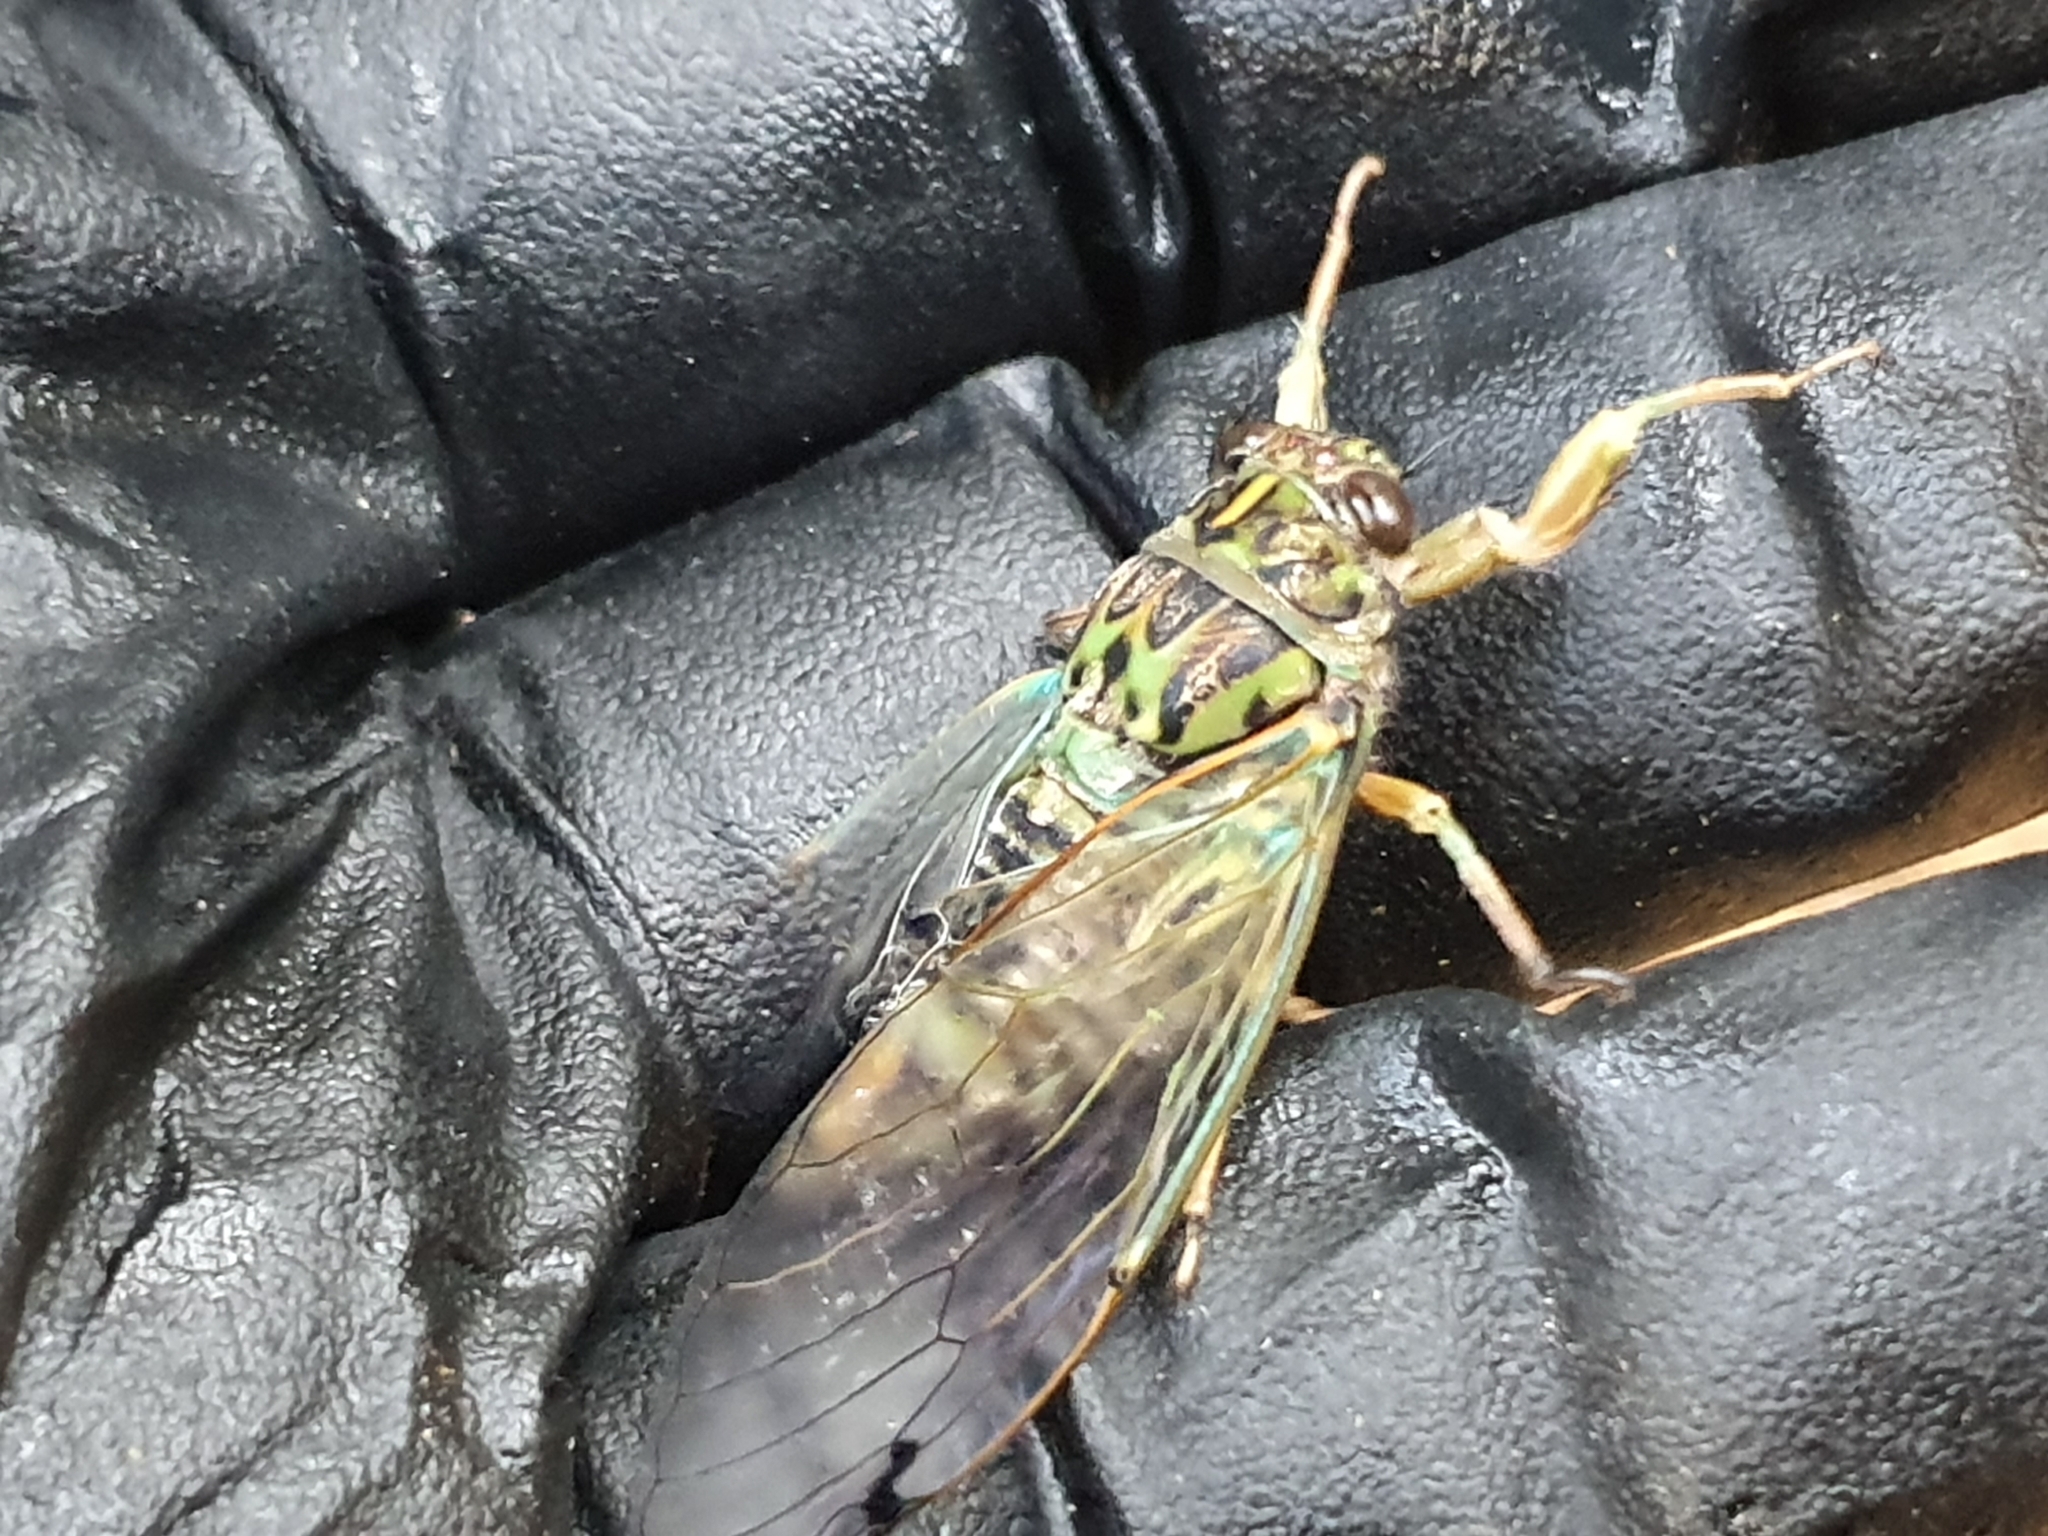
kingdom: Animalia
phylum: Arthropoda
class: Insecta
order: Hemiptera
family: Cicadidae
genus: Amphipsalta
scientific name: Amphipsalta zelandica
